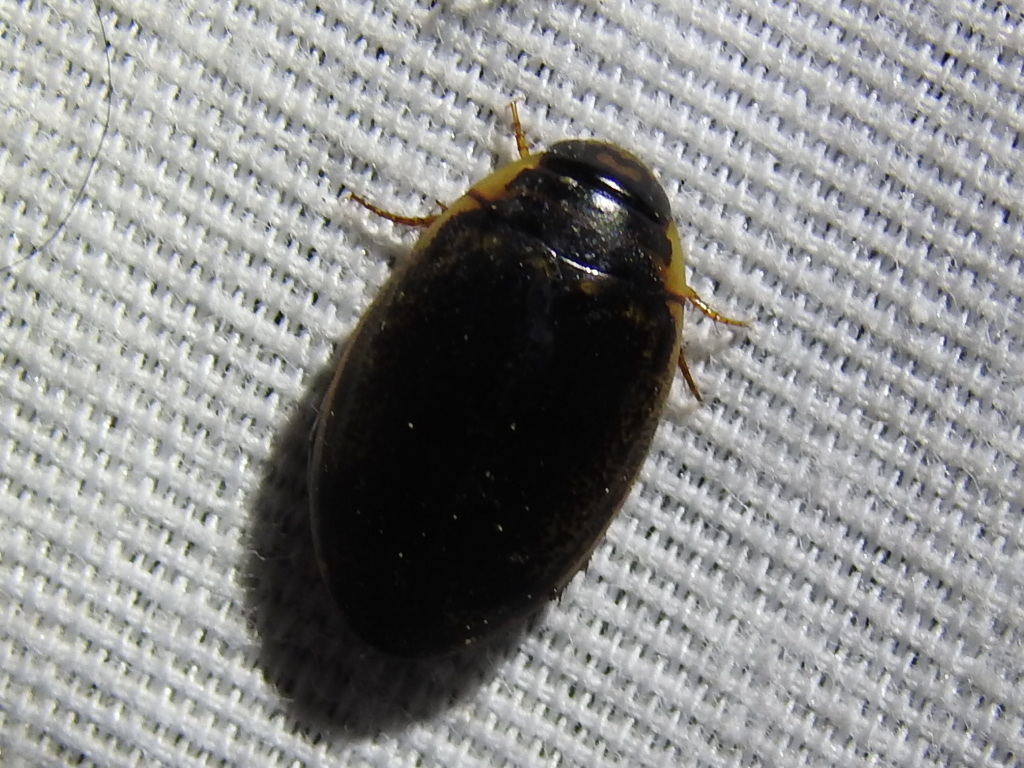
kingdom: Animalia
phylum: Arthropoda
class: Insecta
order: Coleoptera
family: Dytiscidae
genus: Thermonectus
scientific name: Thermonectus basillaris
